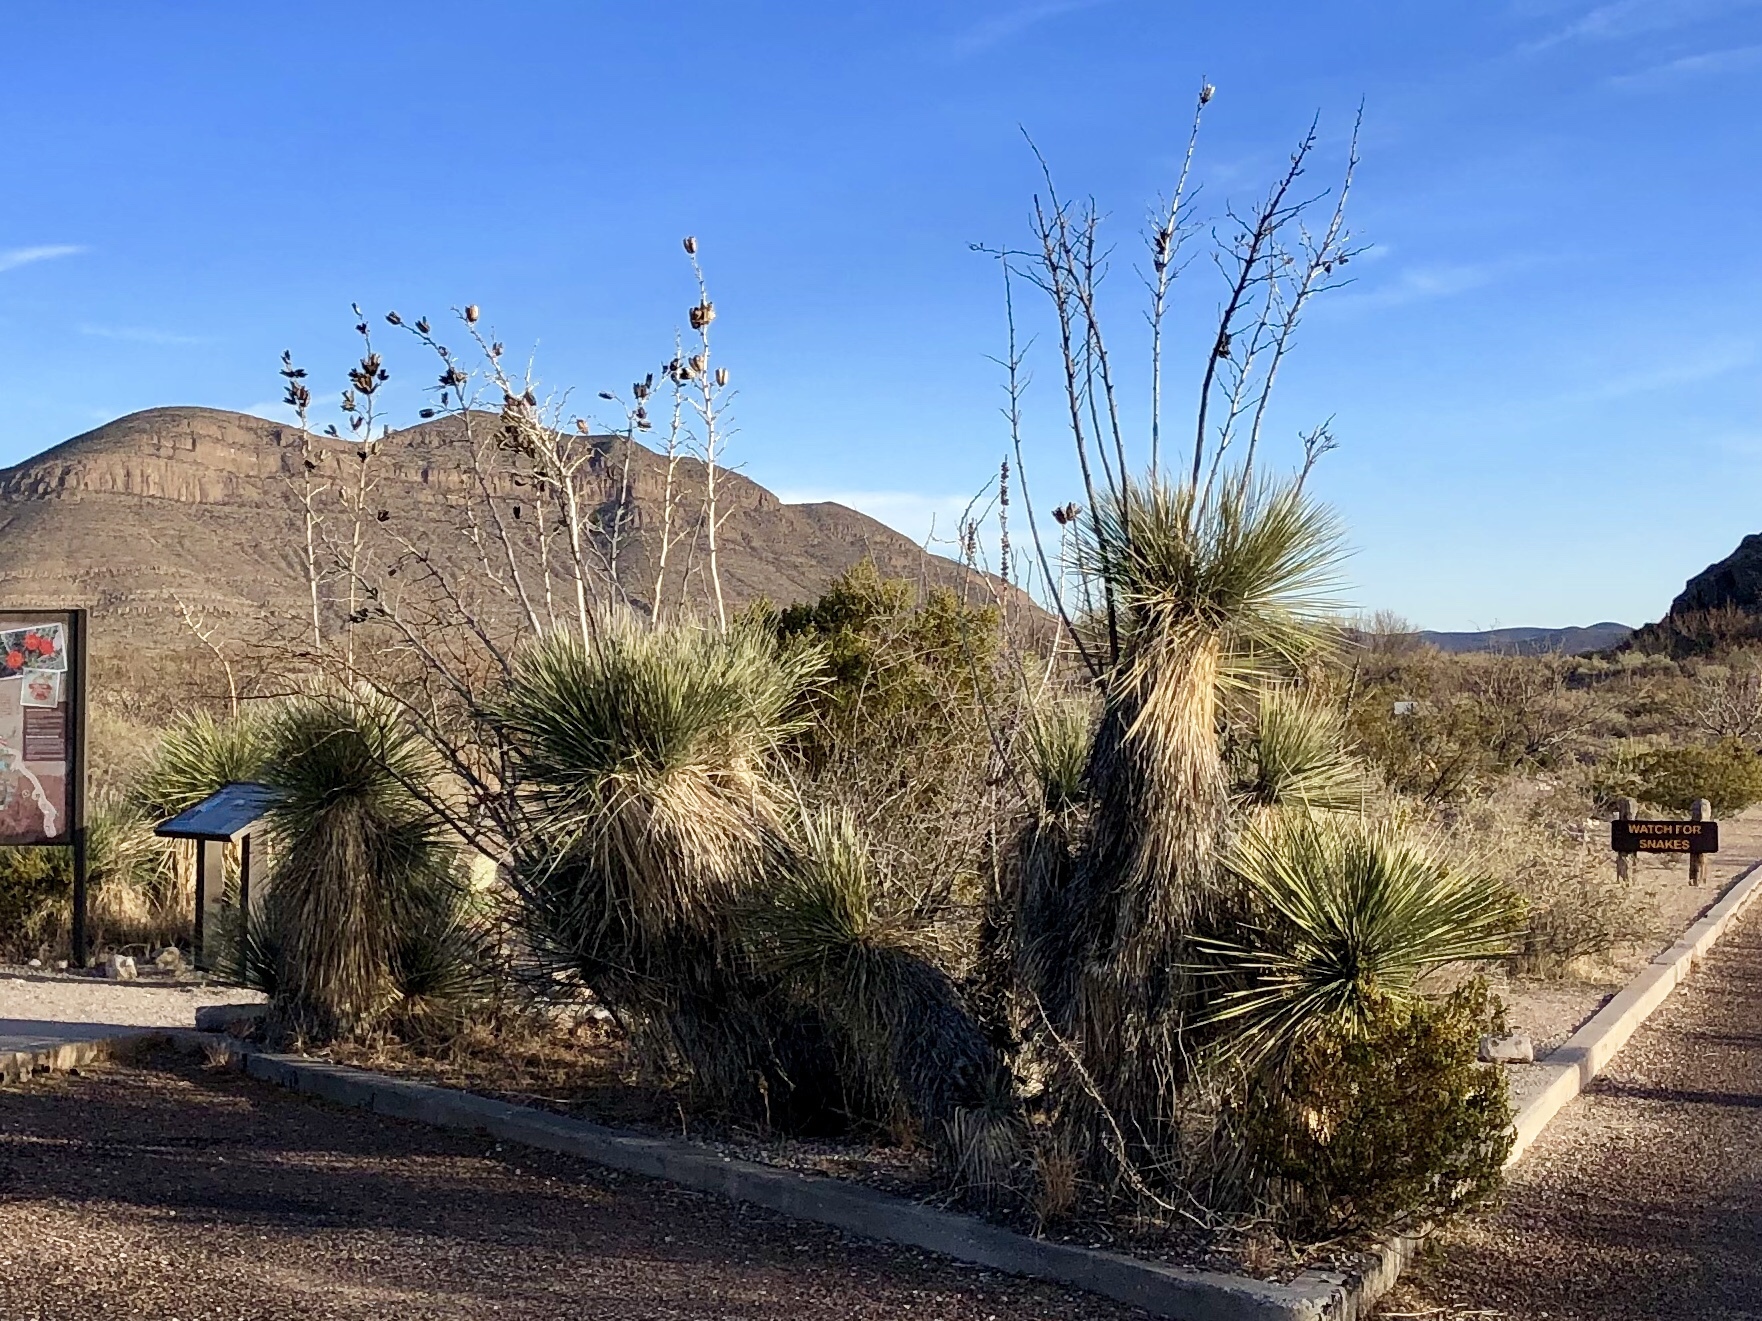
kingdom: Plantae
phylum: Tracheophyta
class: Liliopsida
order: Asparagales
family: Asparagaceae
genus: Yucca
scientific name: Yucca elata
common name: Palmella
